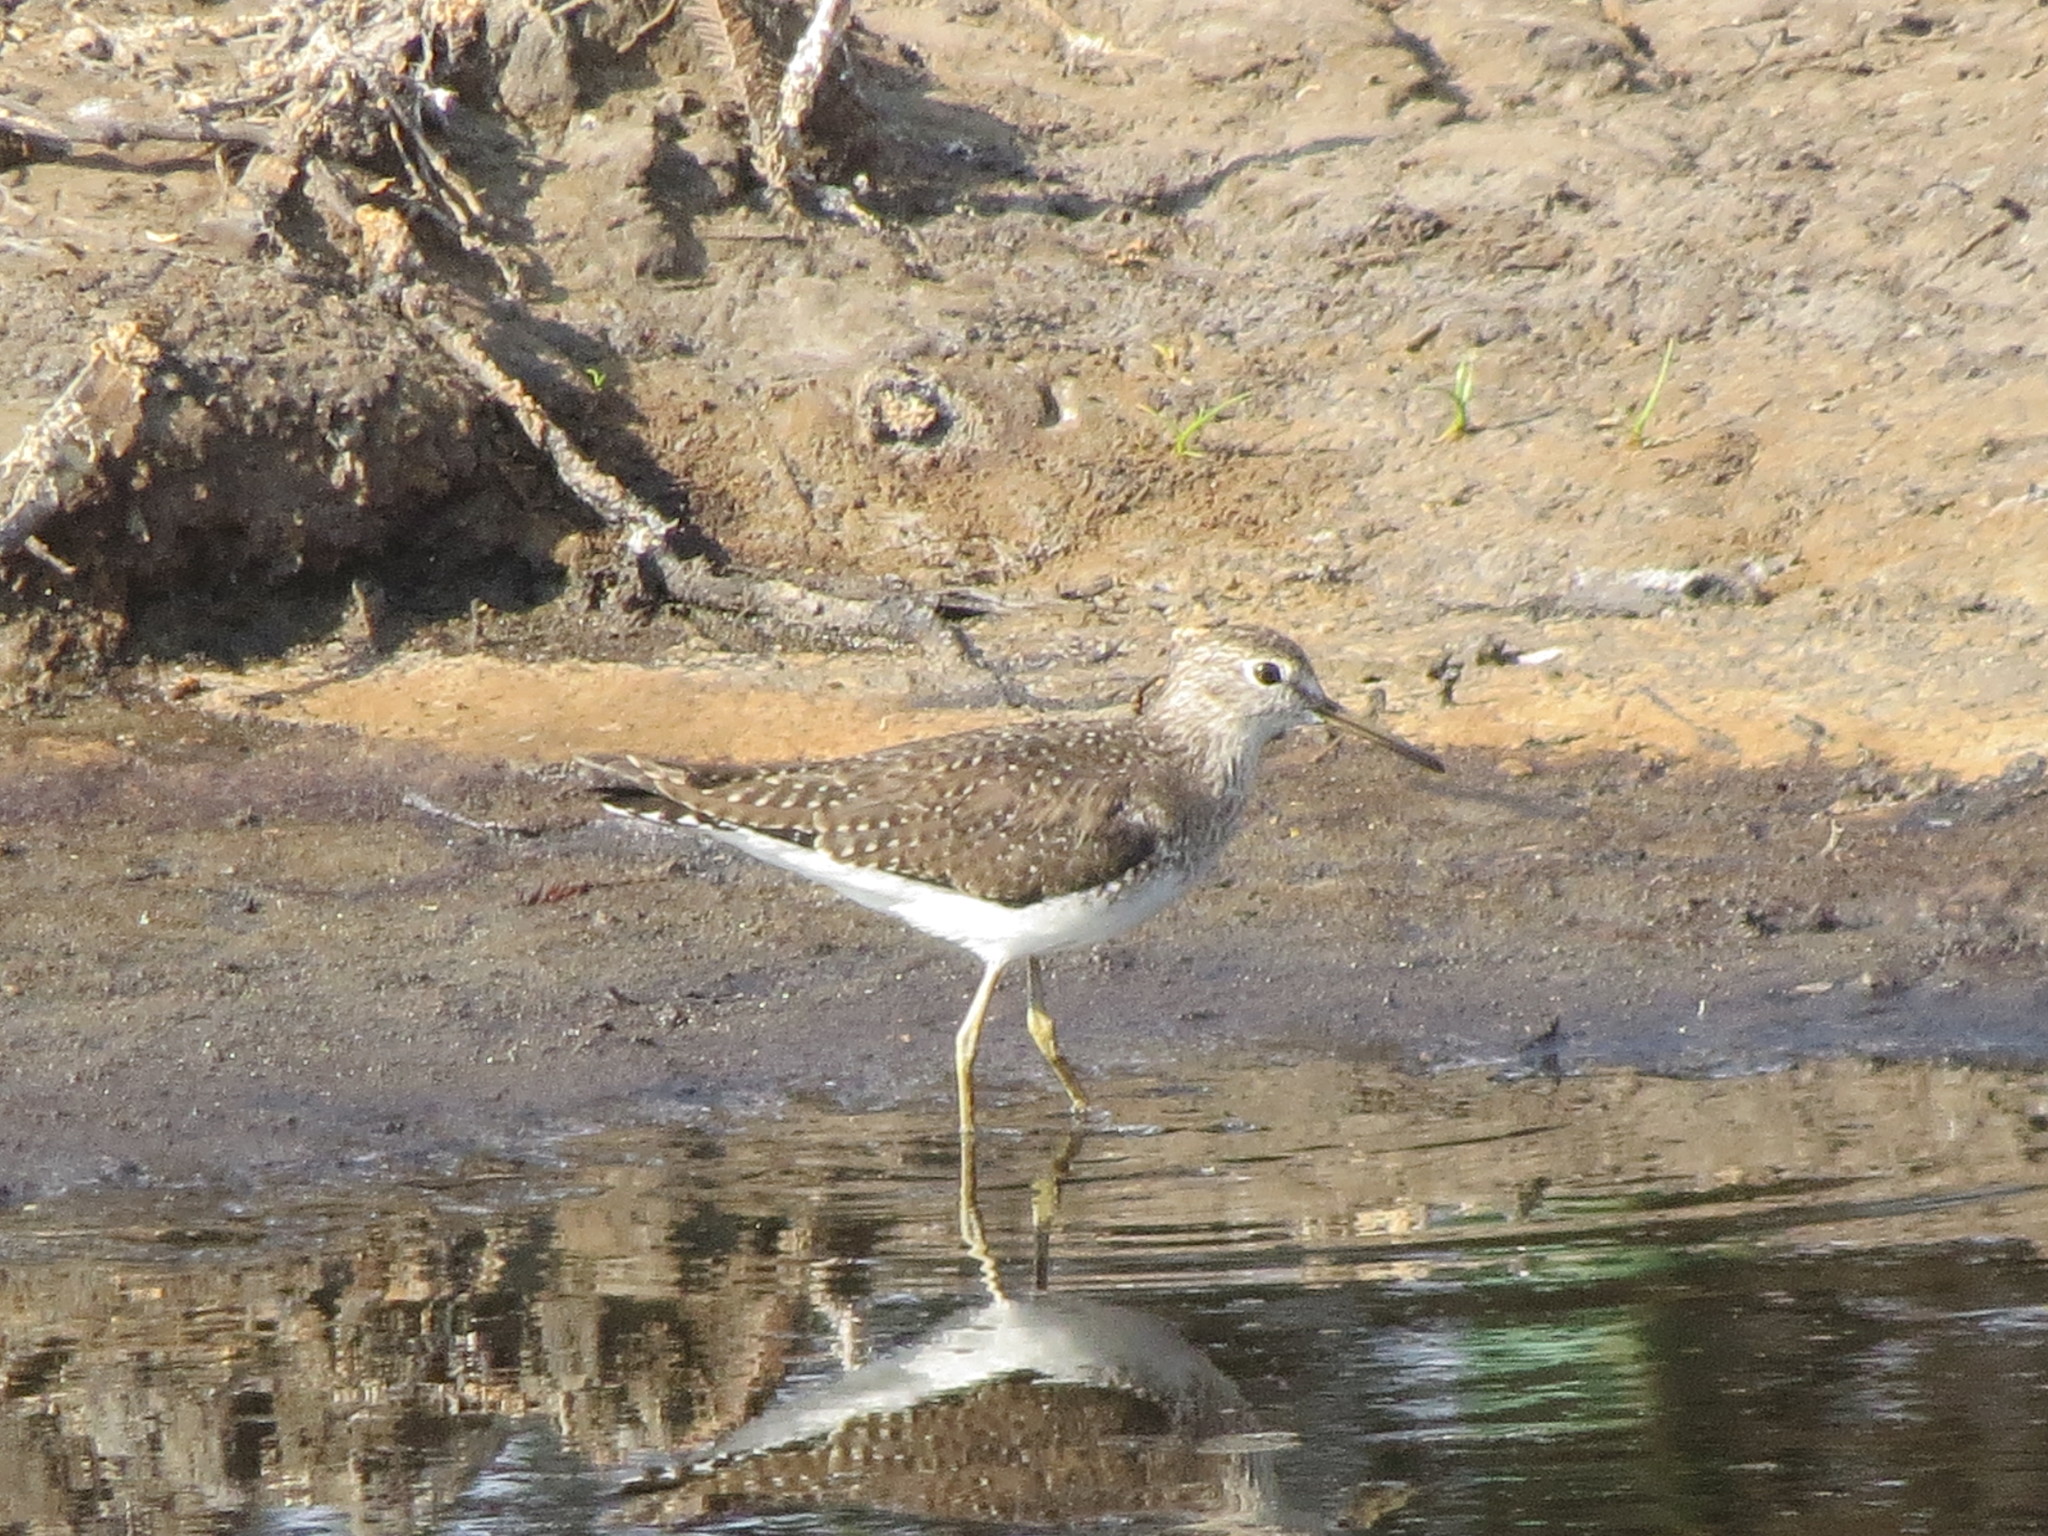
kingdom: Animalia
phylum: Chordata
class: Aves
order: Charadriiformes
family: Scolopacidae
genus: Tringa
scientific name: Tringa solitaria
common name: Solitary sandpiper
